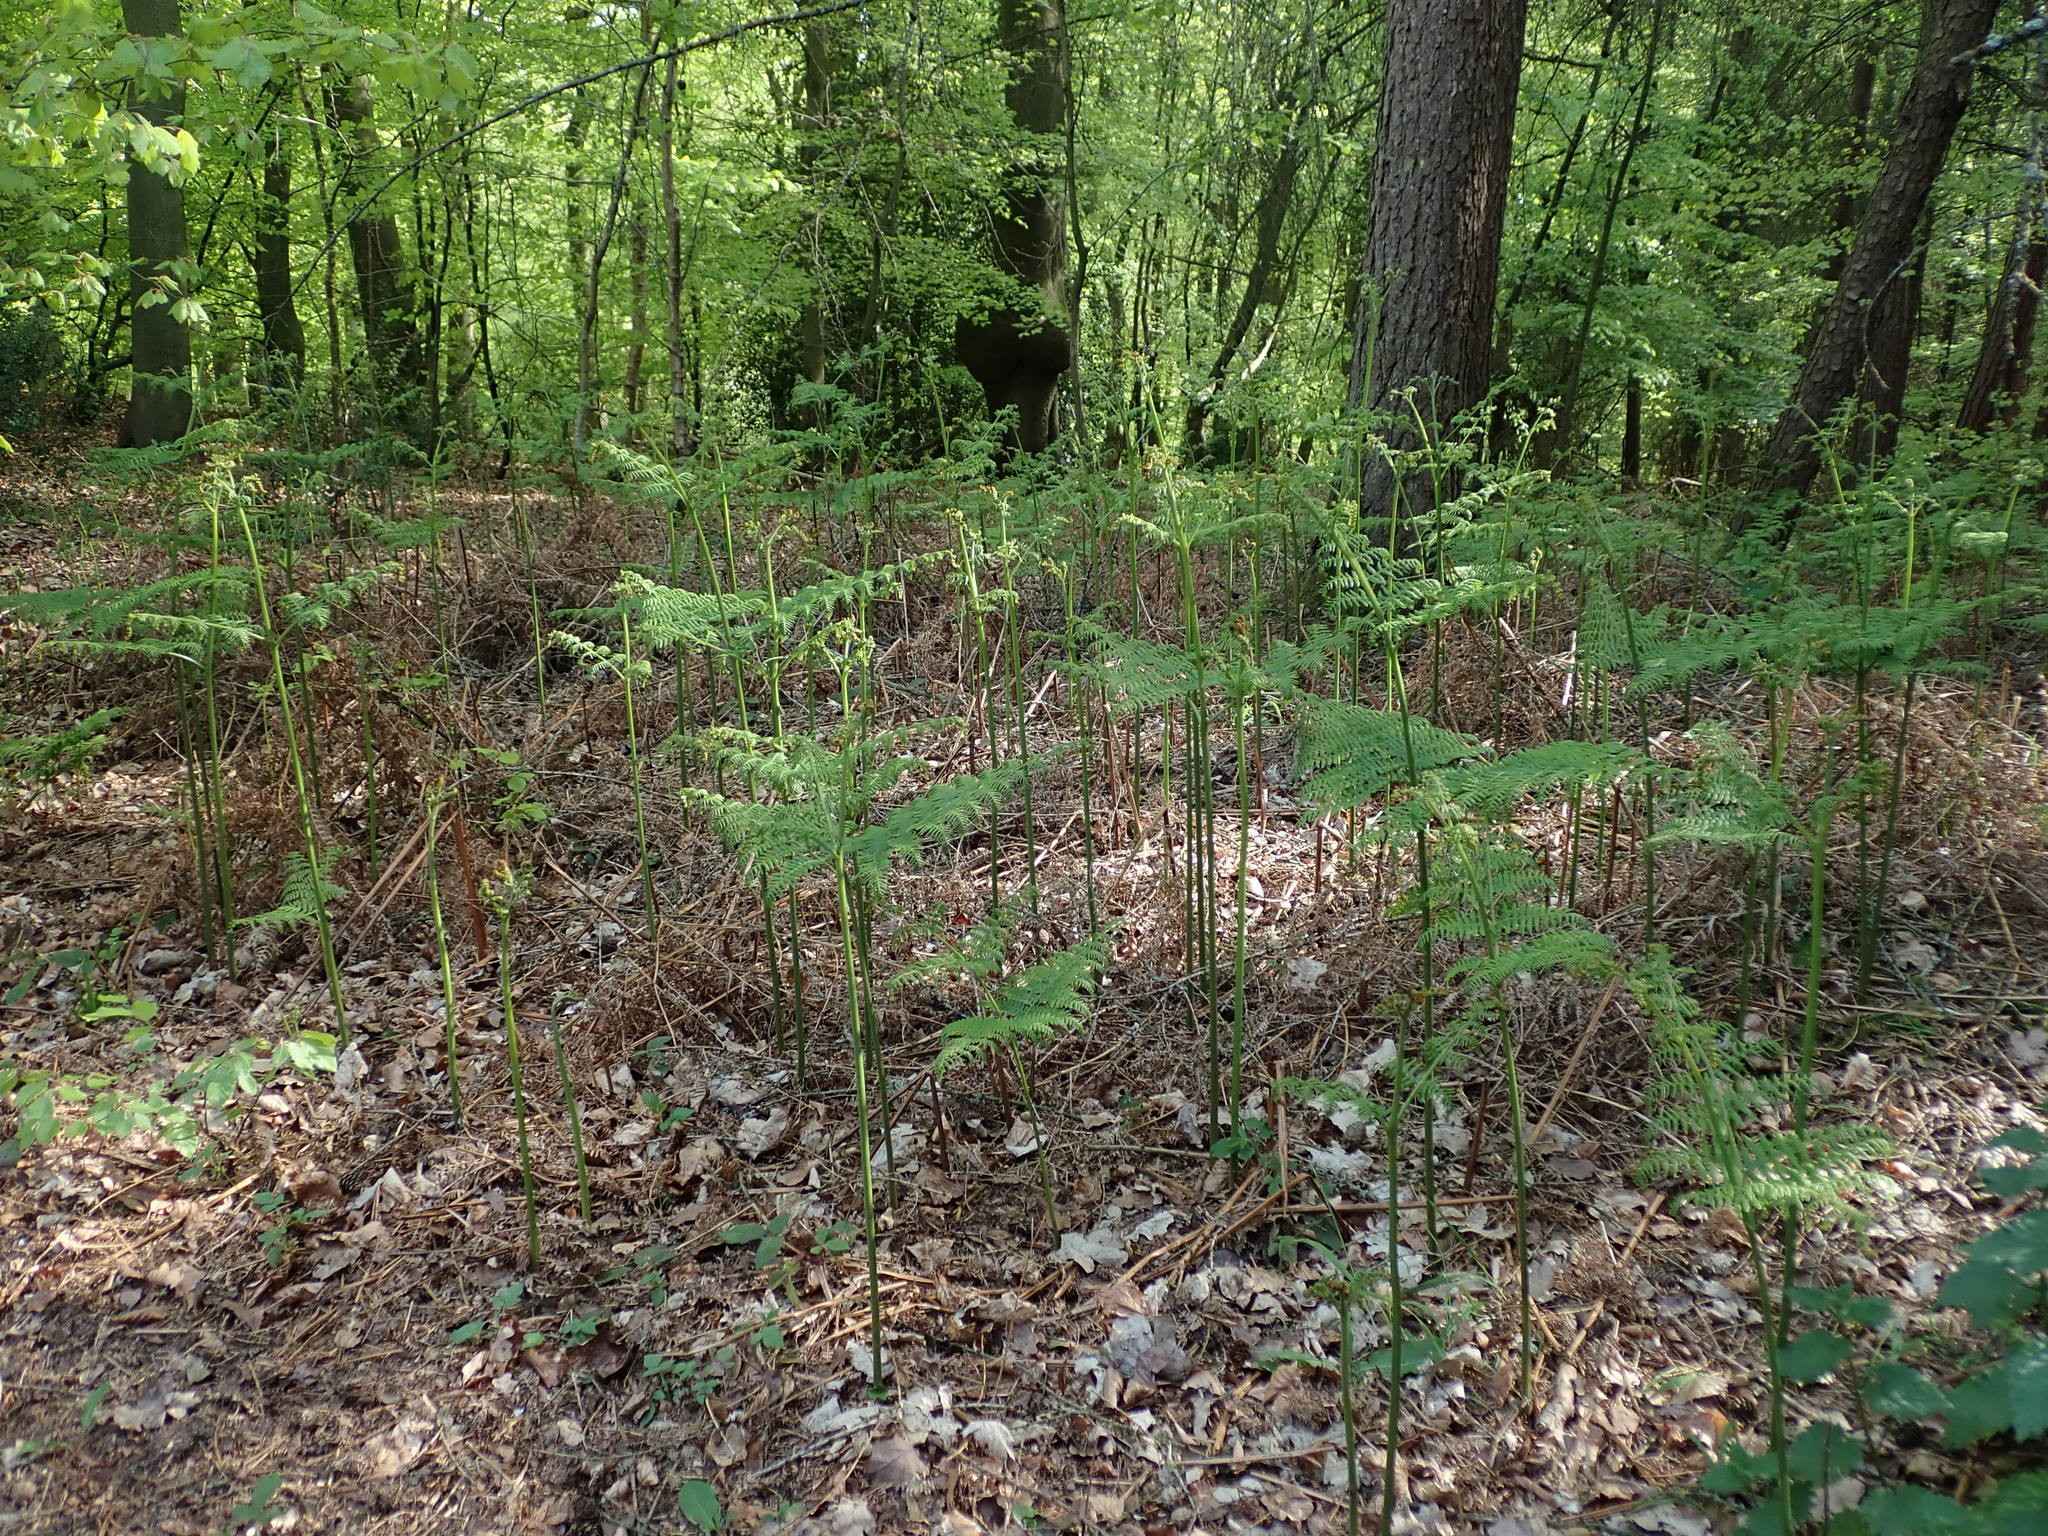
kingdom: Plantae
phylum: Tracheophyta
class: Polypodiopsida
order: Polypodiales
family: Dennstaedtiaceae
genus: Pteridium
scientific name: Pteridium aquilinum
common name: Bracken
